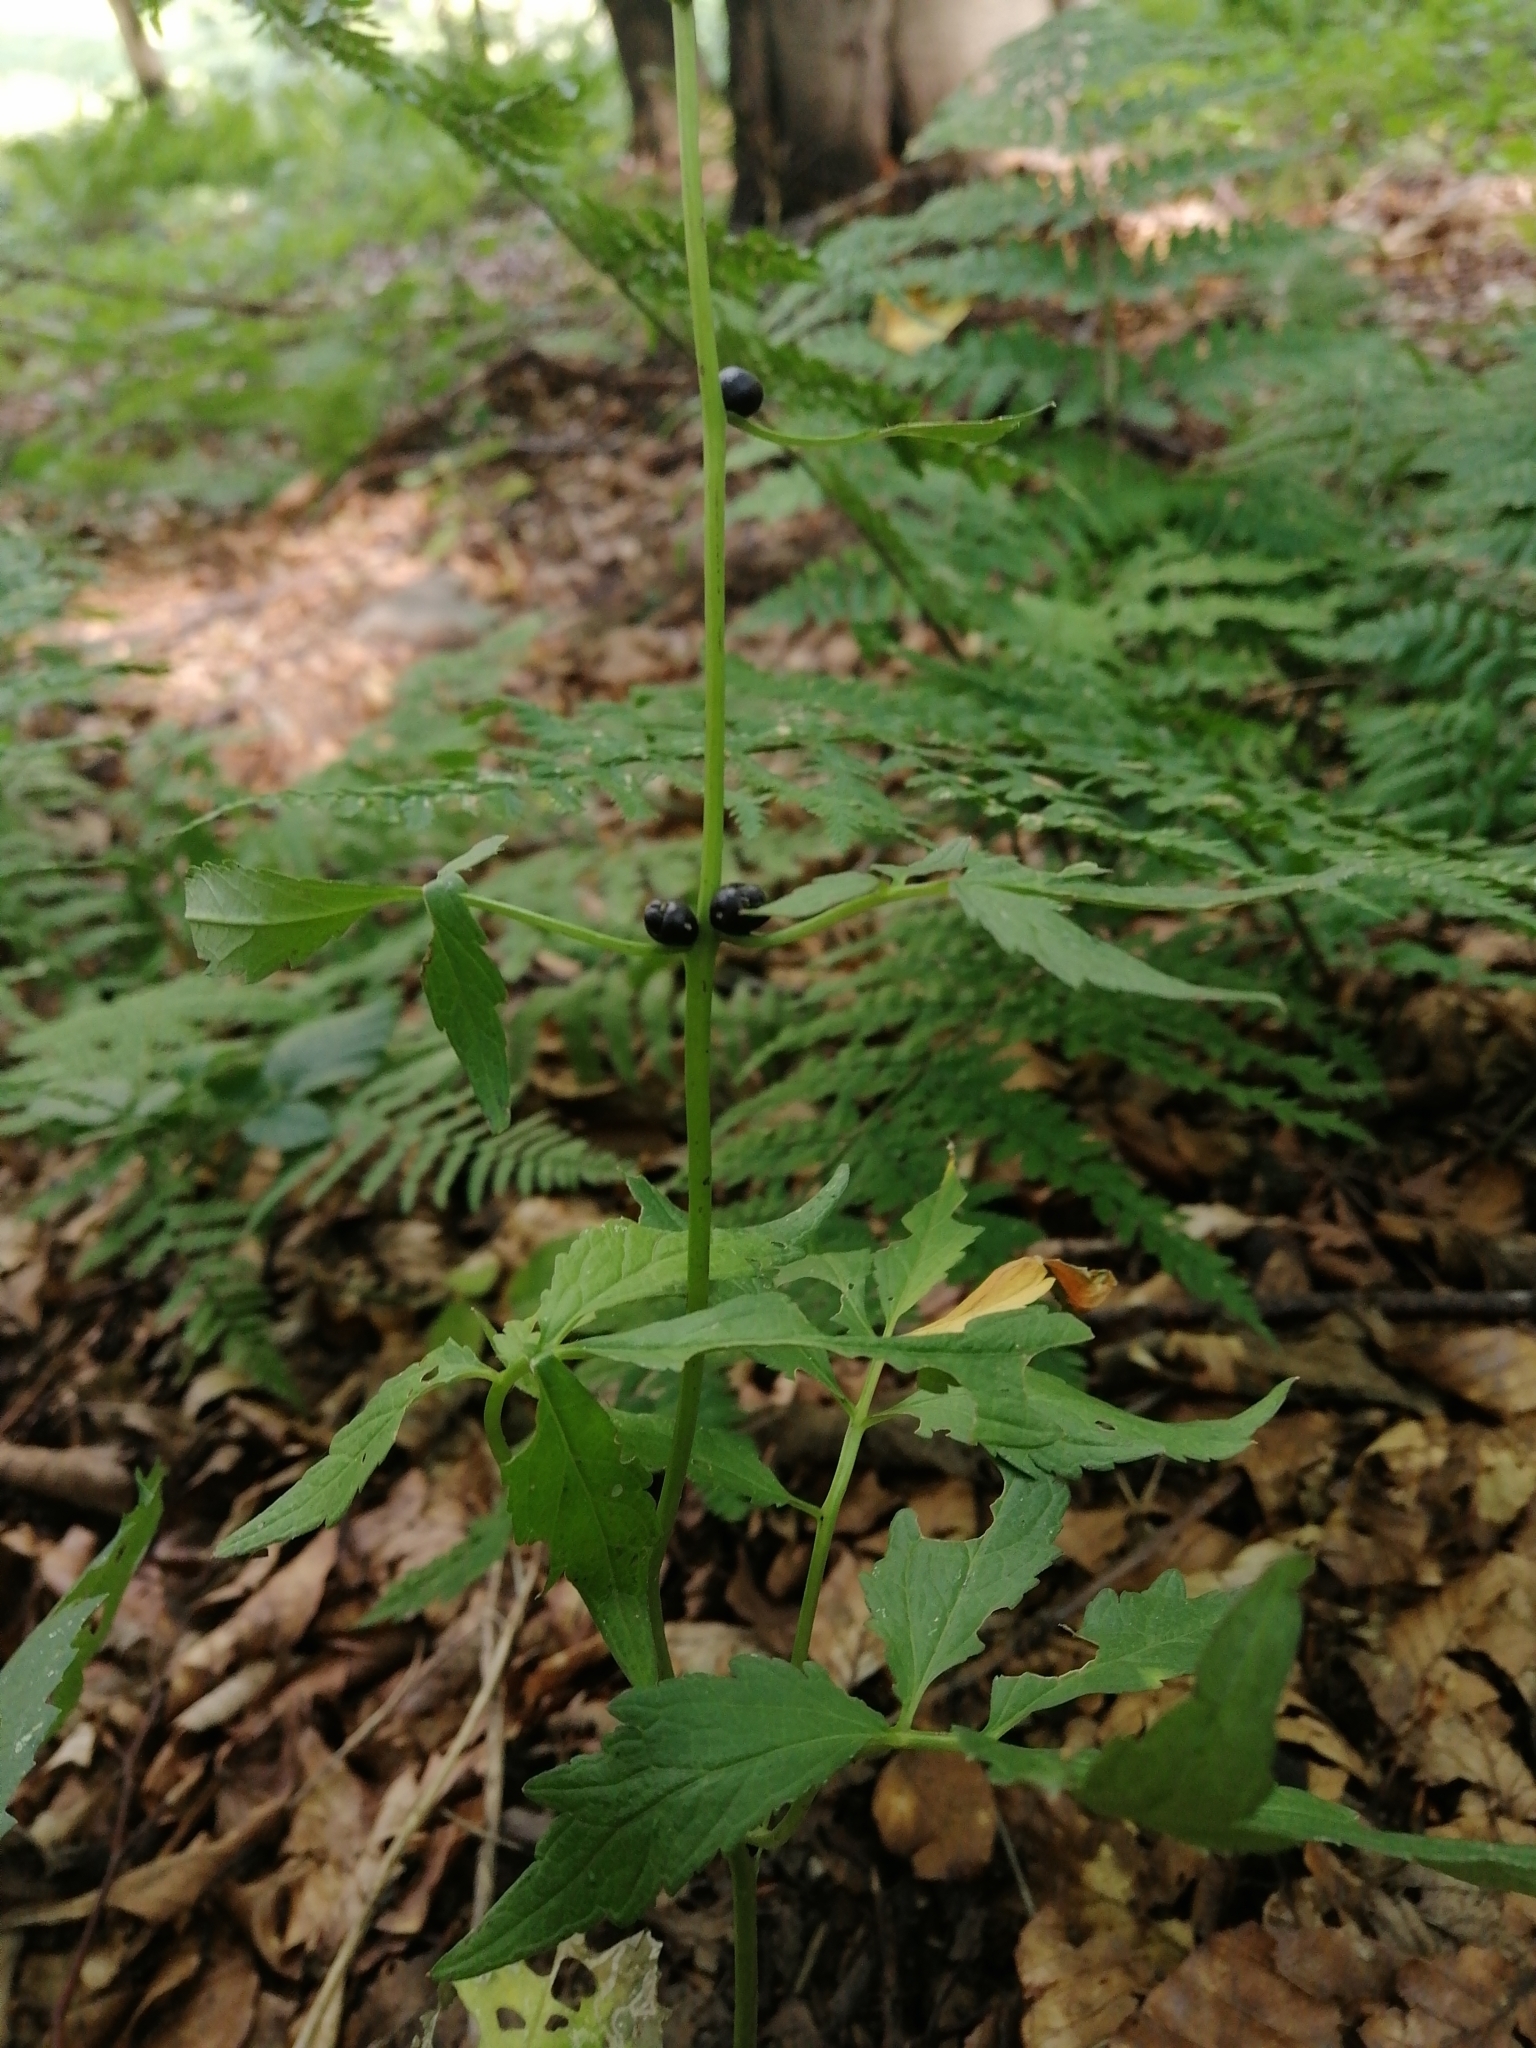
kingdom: Plantae
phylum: Tracheophyta
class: Magnoliopsida
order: Brassicales
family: Brassicaceae
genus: Cardamine
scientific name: Cardamine bulbifera
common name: Coralroot bittercress
